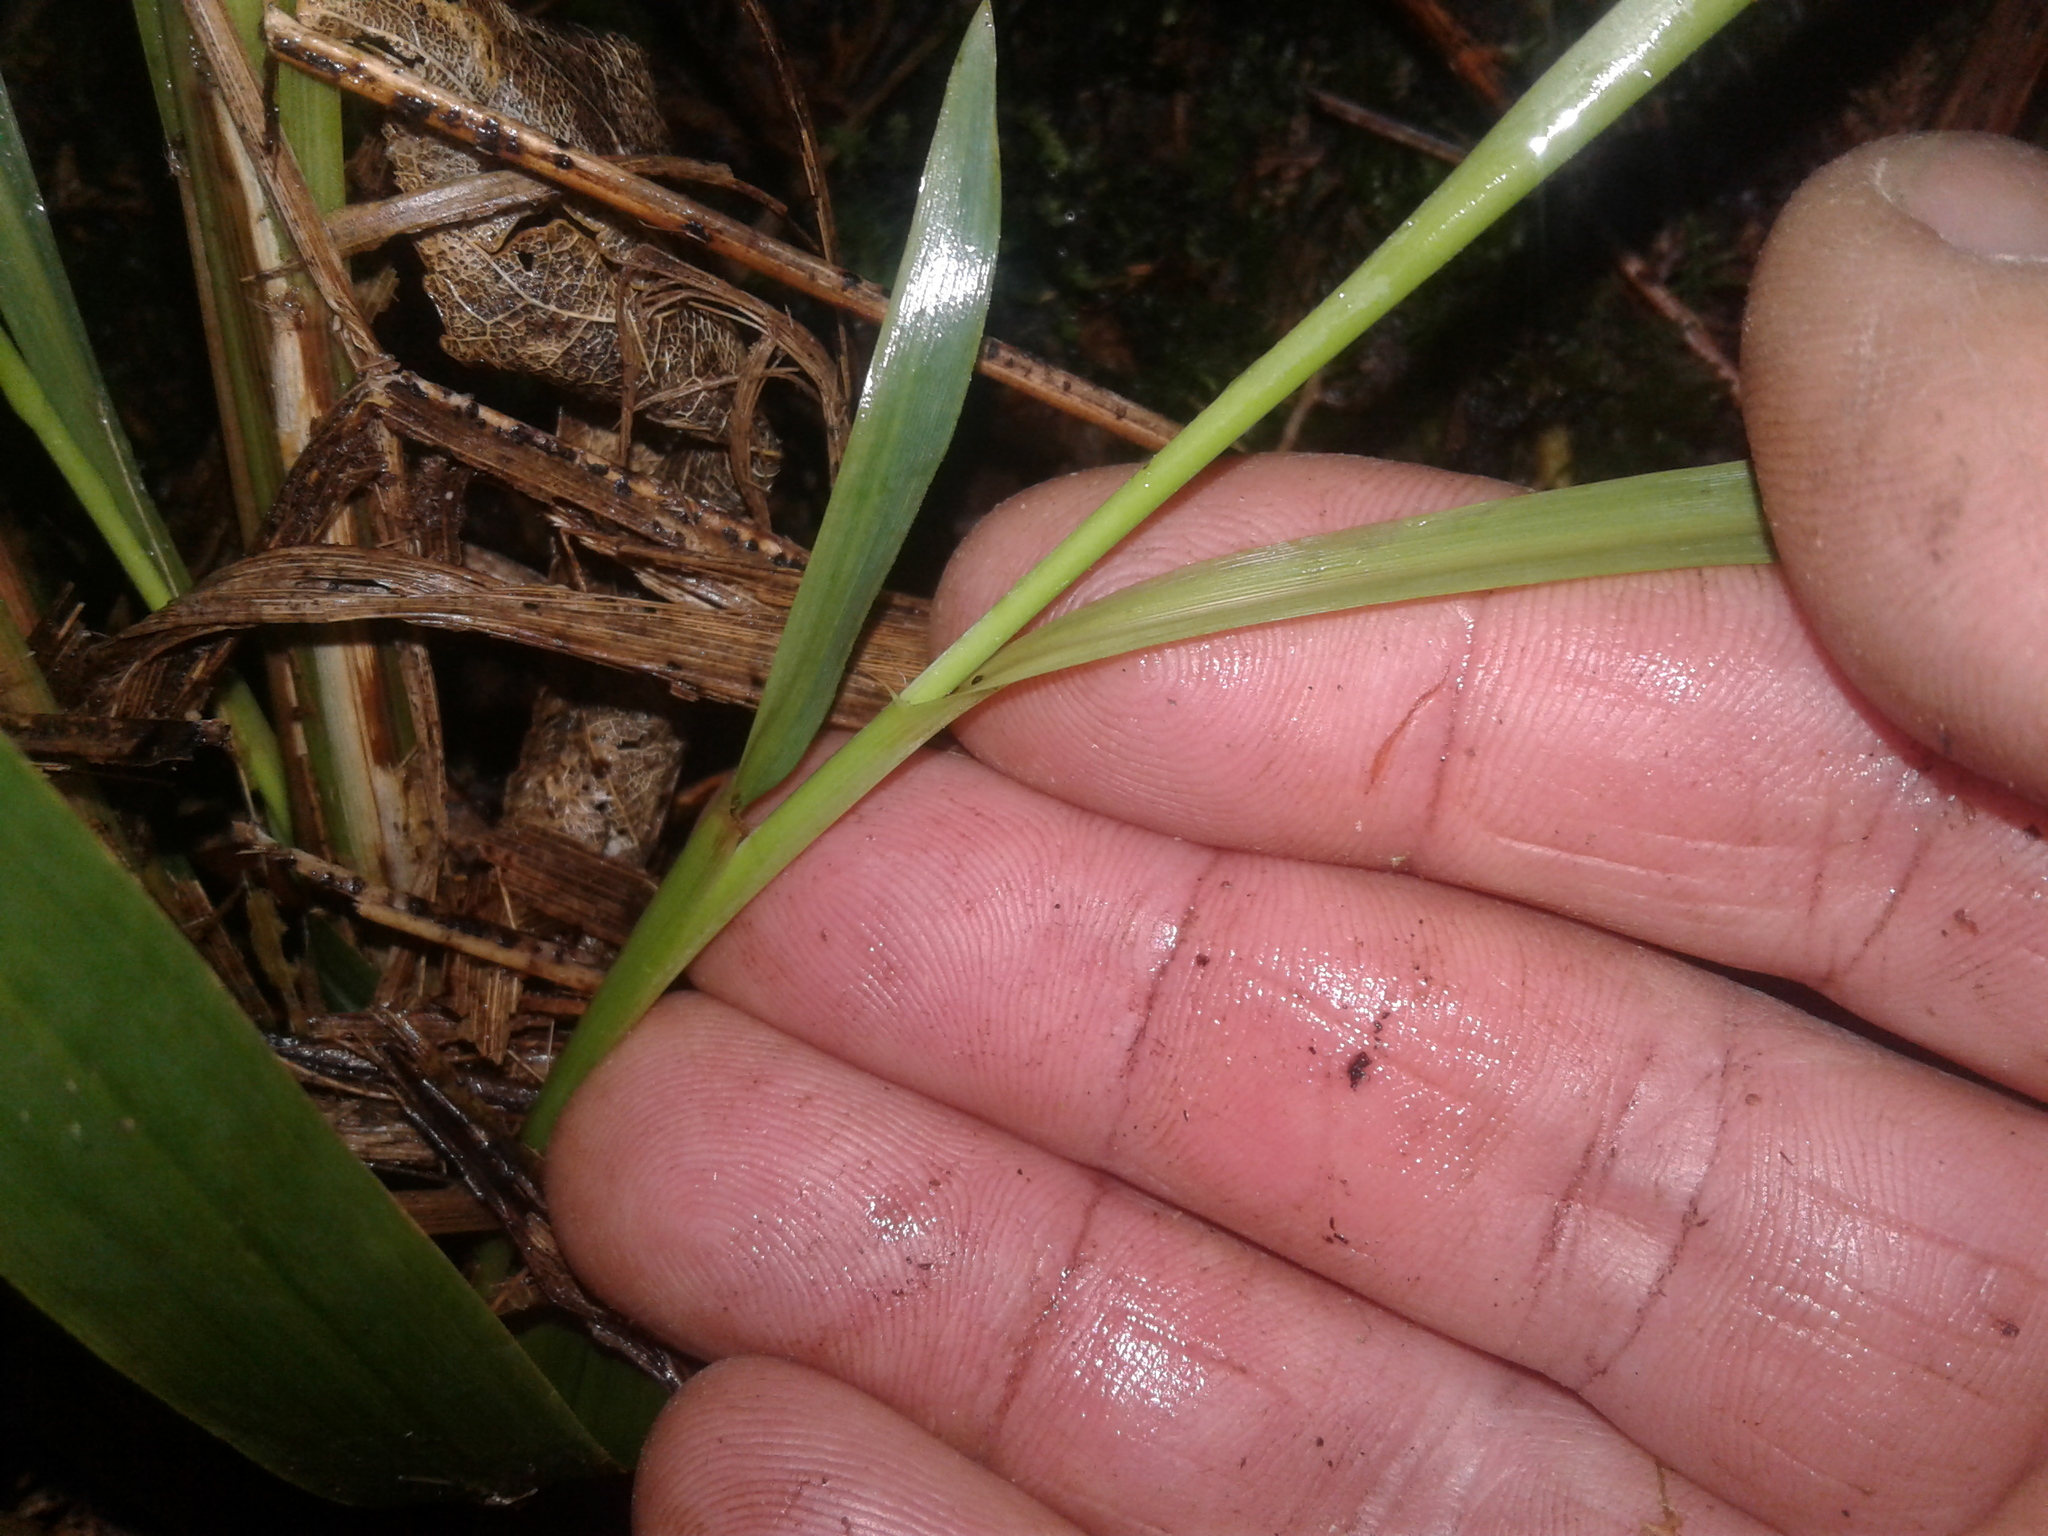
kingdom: Plantae
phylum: Tracheophyta
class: Liliopsida
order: Poales
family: Poaceae
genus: Ehrharta
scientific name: Ehrharta diplax
